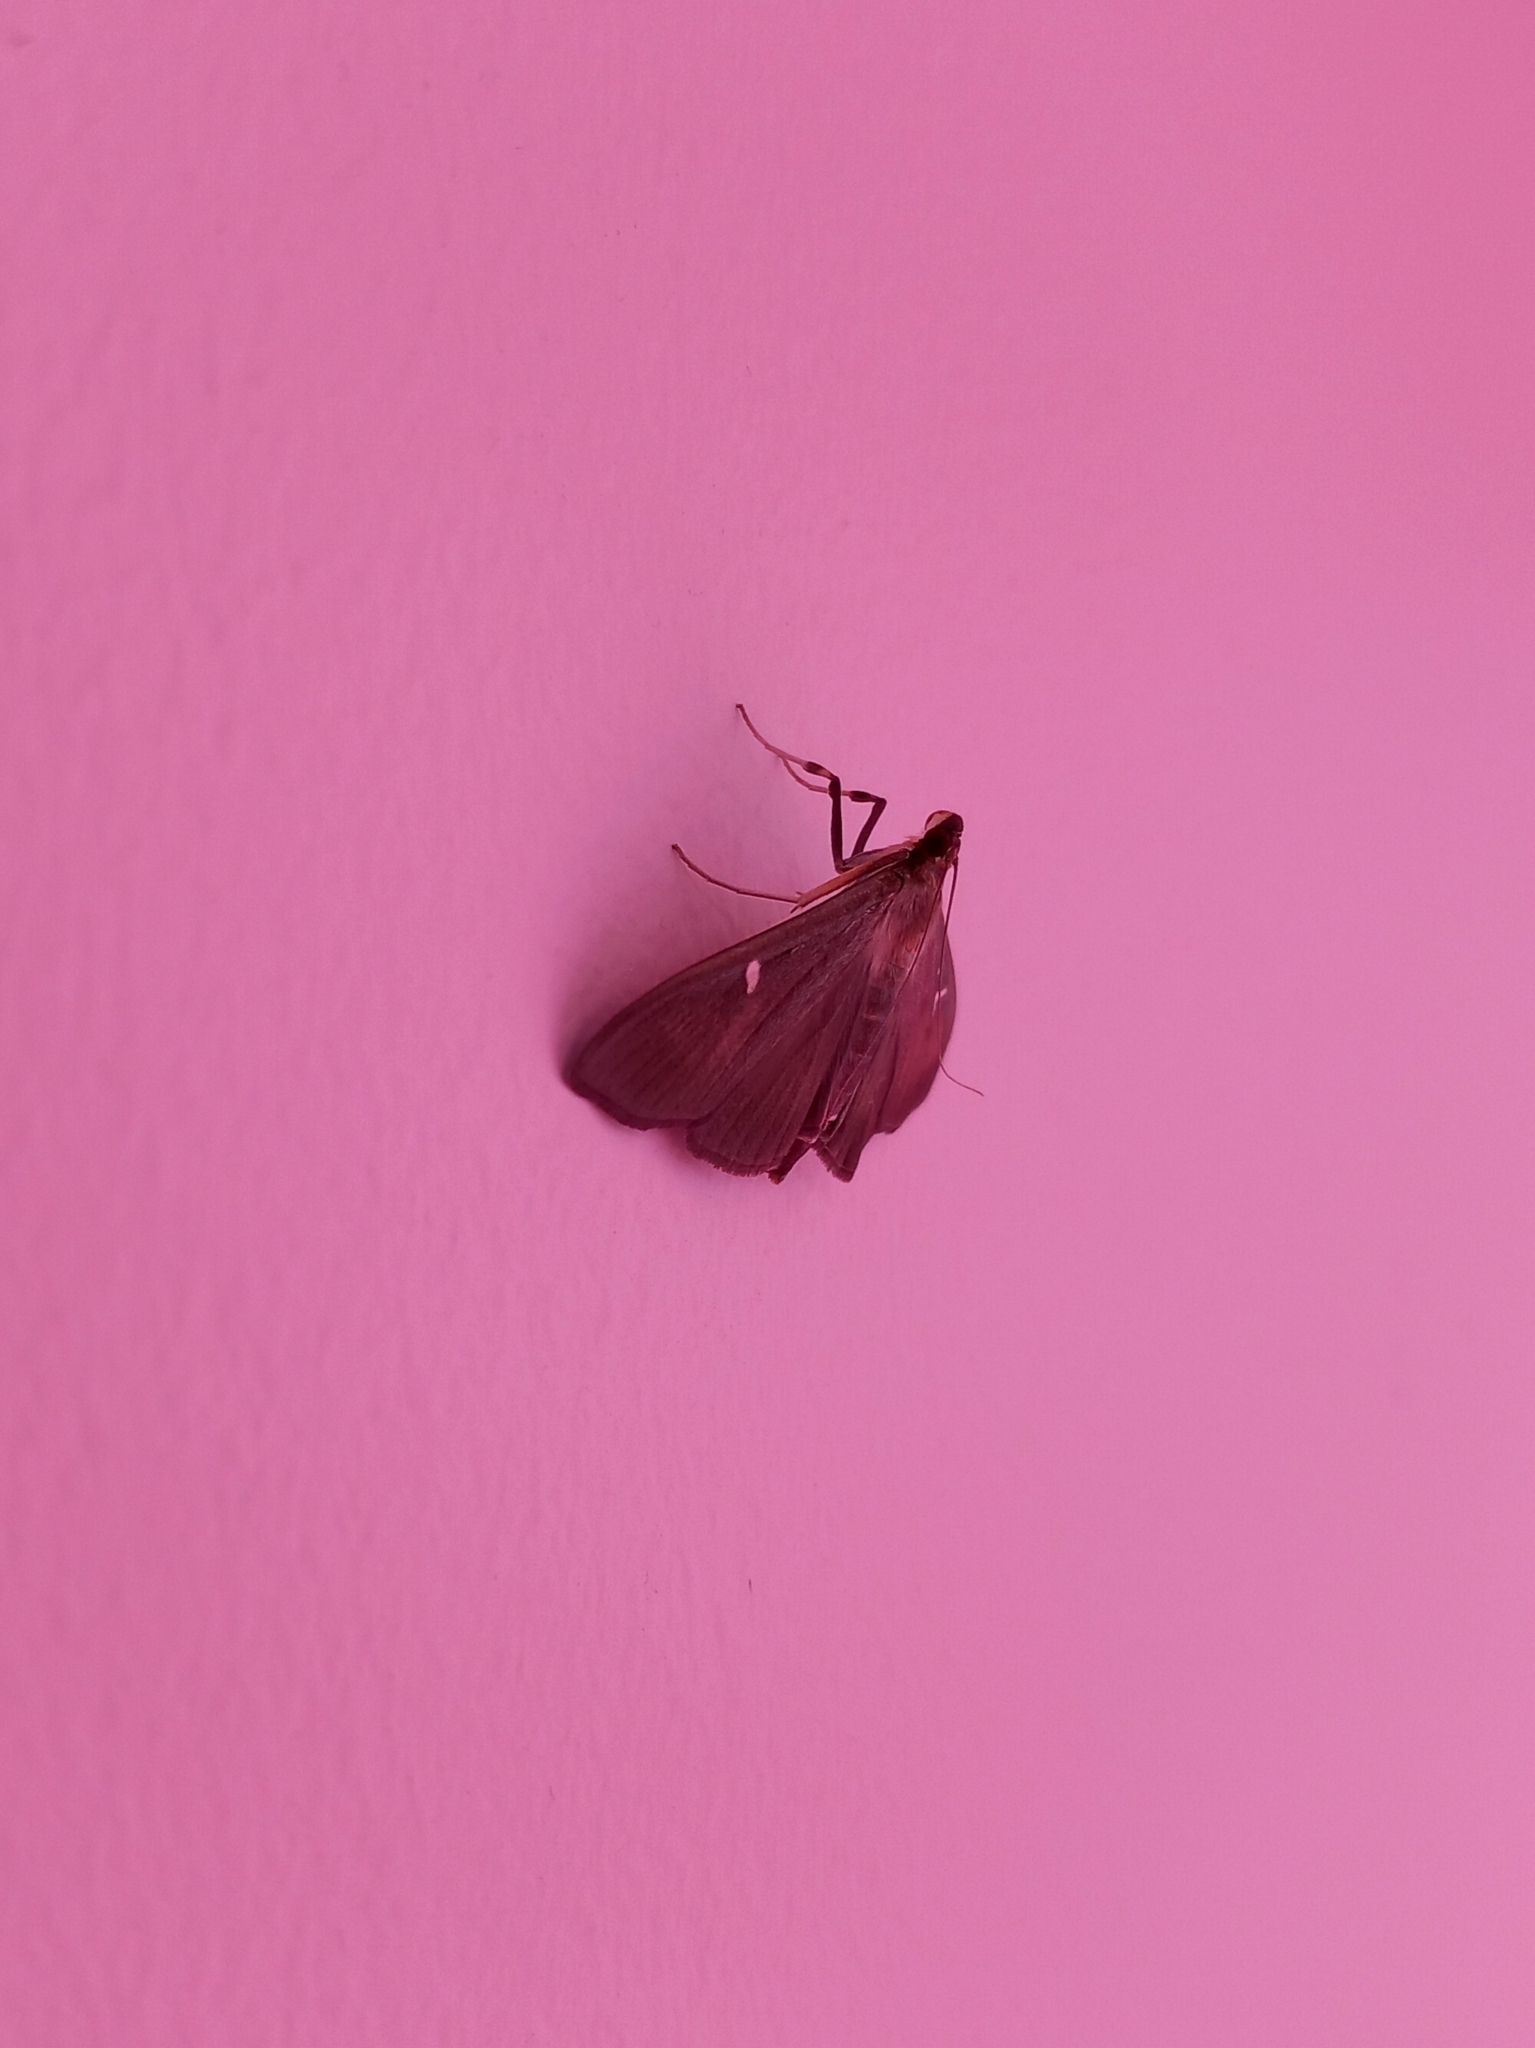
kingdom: Animalia
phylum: Arthropoda
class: Insecta
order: Lepidoptera
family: Crambidae
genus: Cydalima
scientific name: Cydalima perspectalis
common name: Box tree moth
